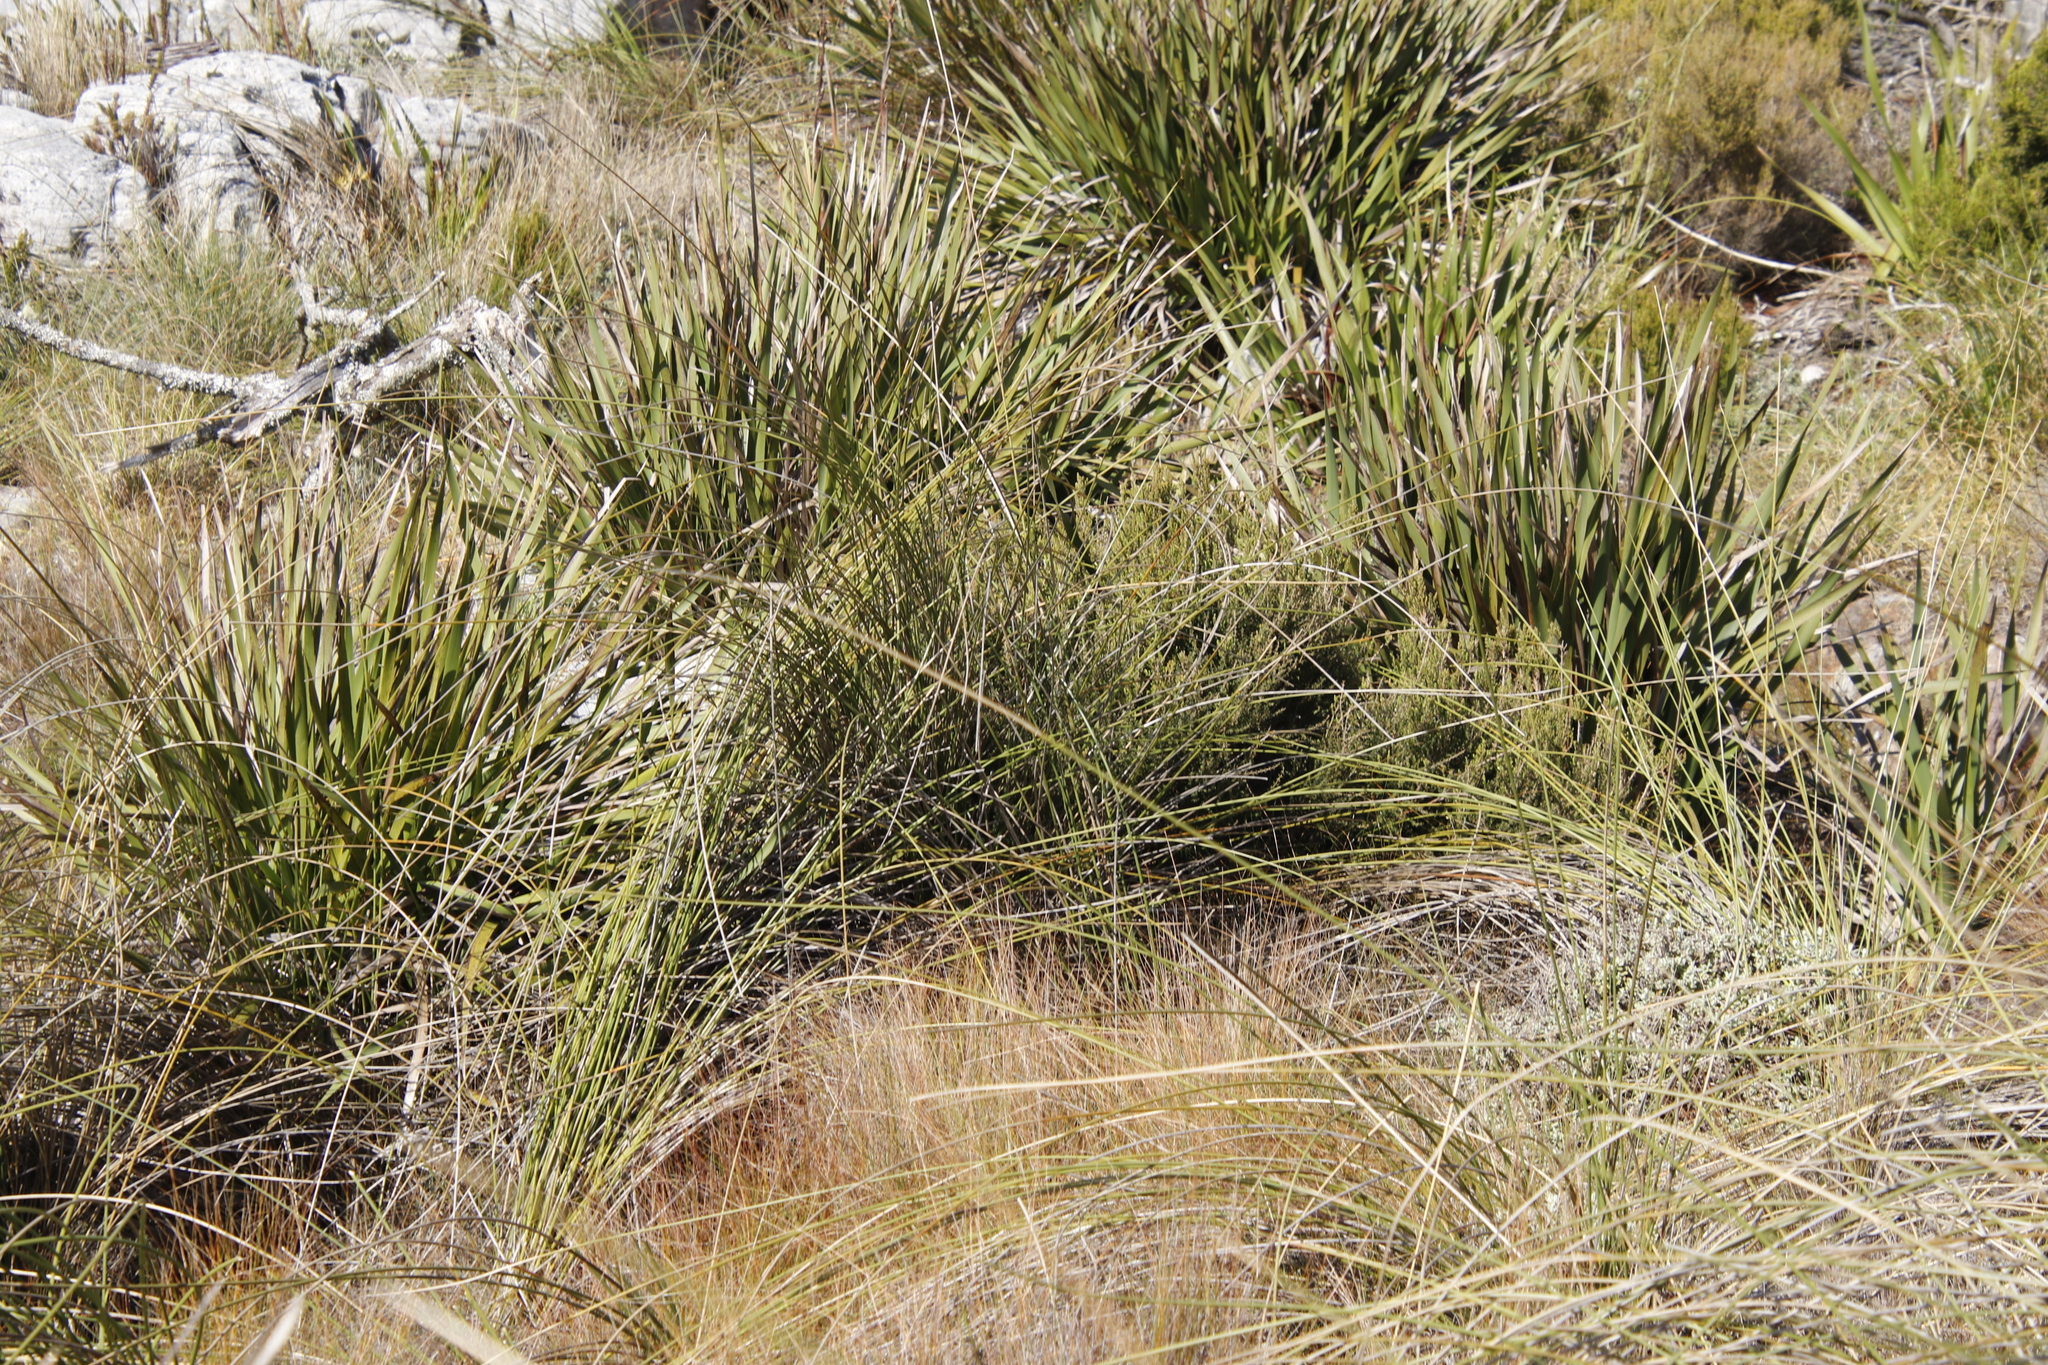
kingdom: Plantae
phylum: Tracheophyta
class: Liliopsida
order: Poales
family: Juncaceae
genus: Juncus
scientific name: Juncus effusus
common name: Soft rush
